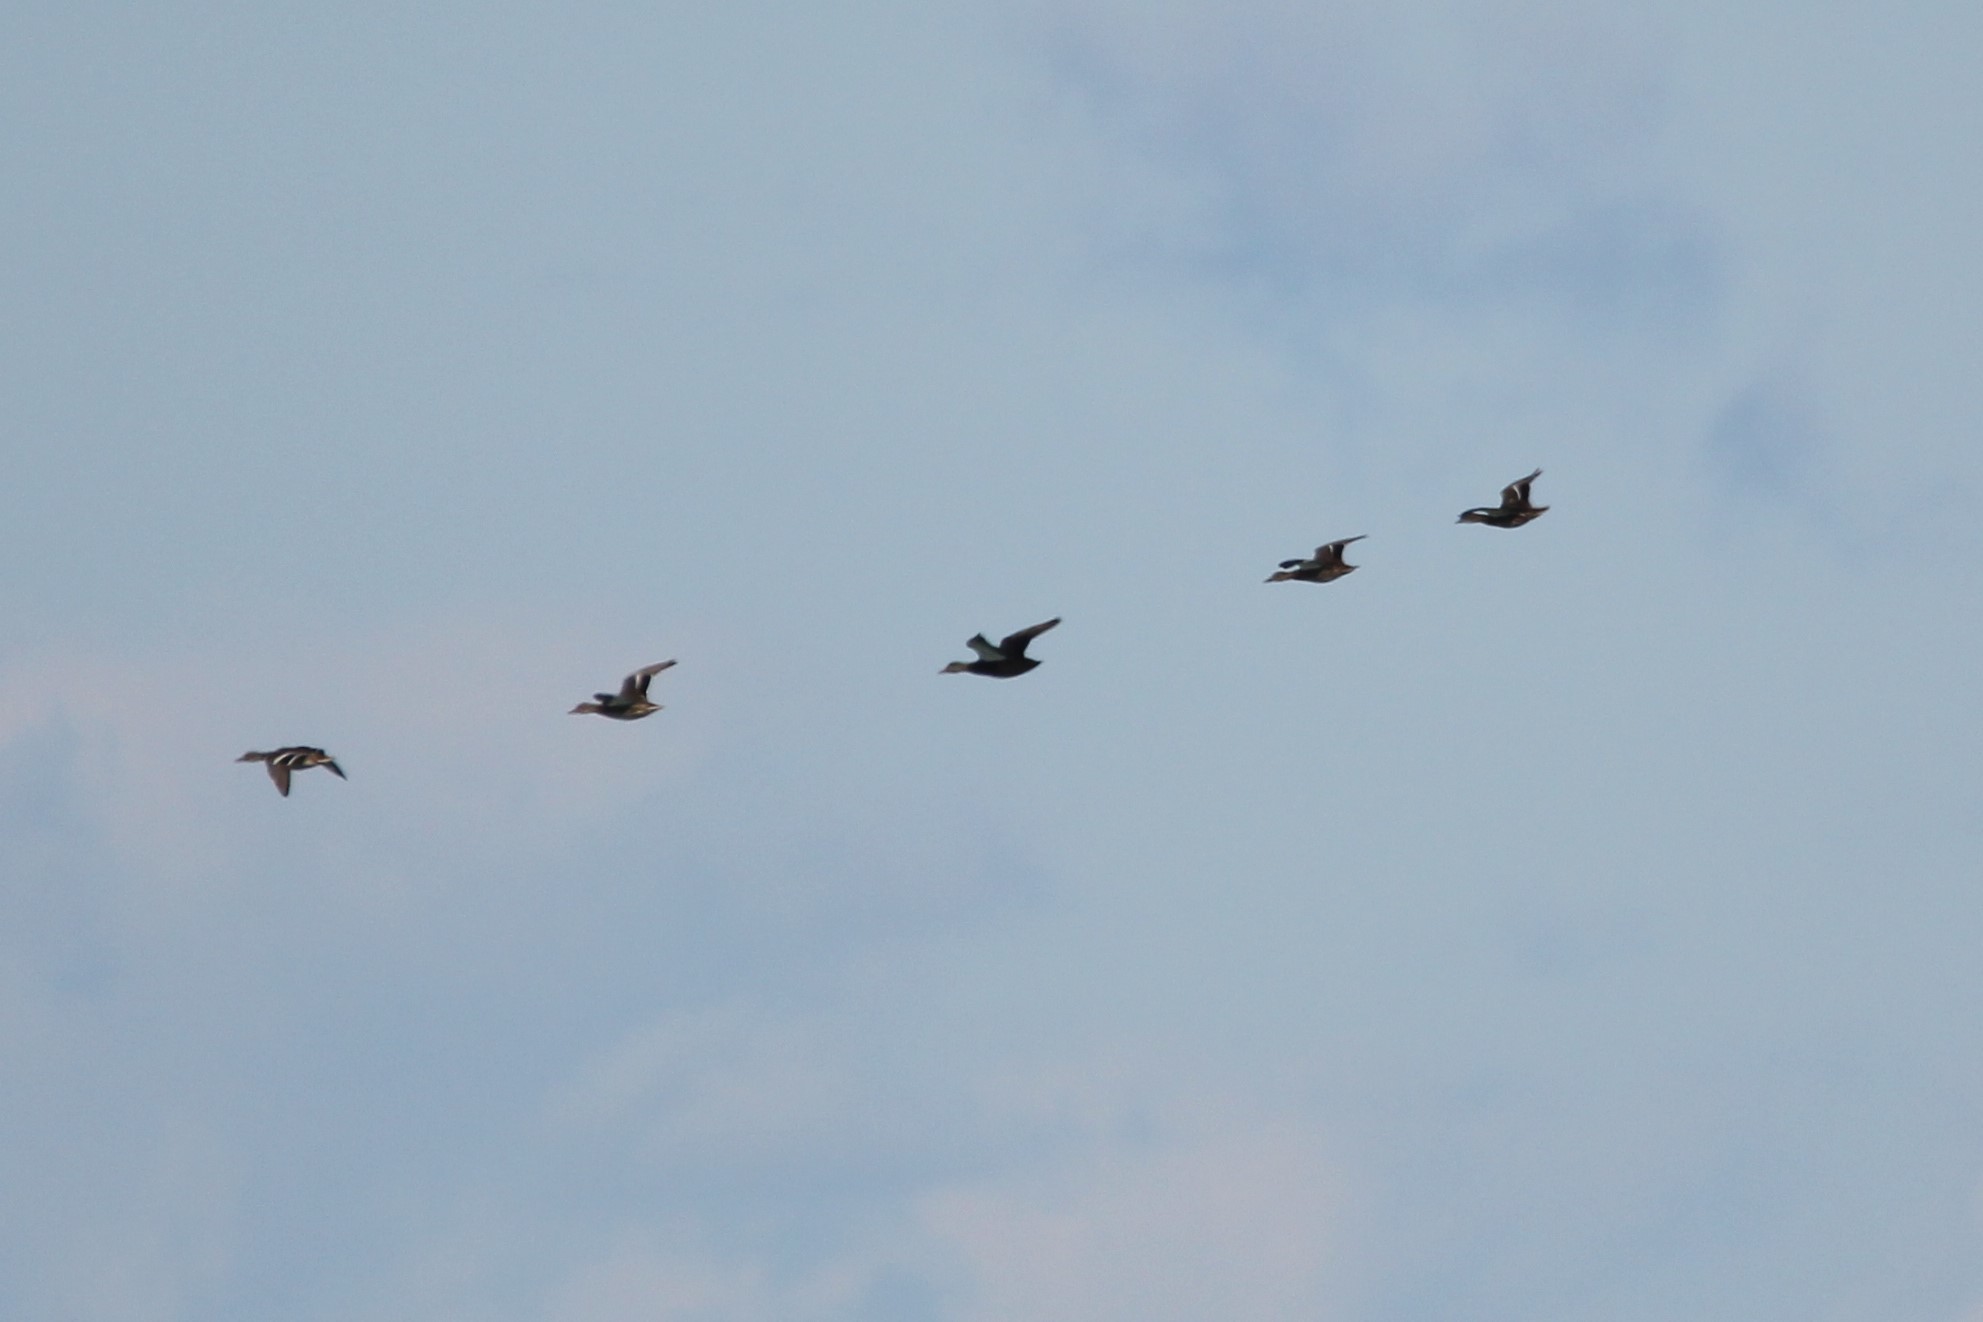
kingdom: Animalia
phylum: Chordata
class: Aves
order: Anseriformes
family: Anatidae
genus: Anas
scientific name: Anas rubripes
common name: American black duck
